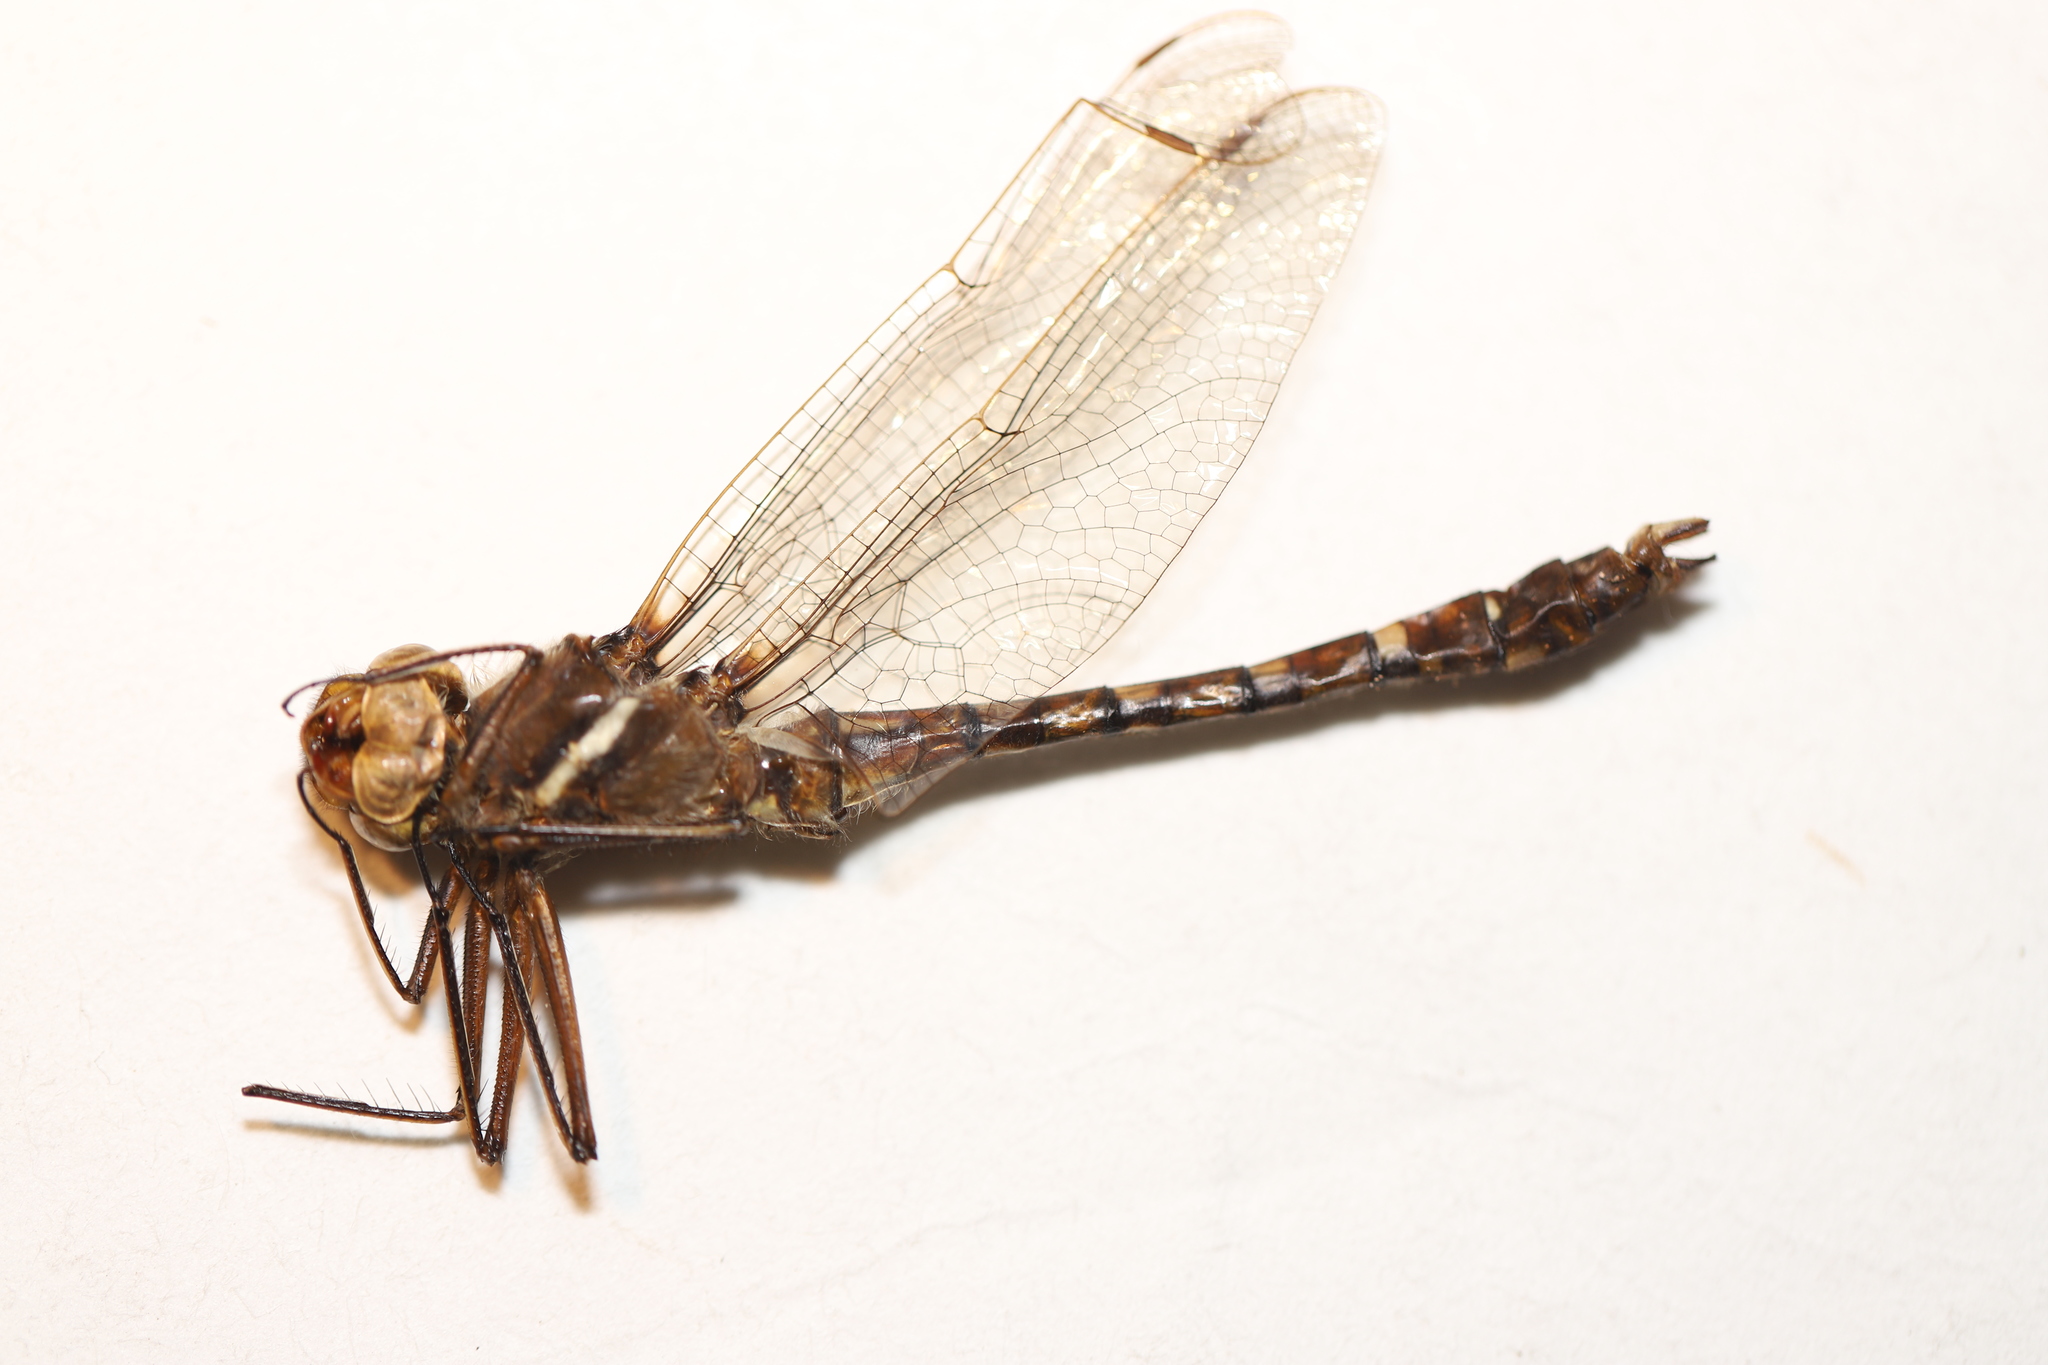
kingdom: Animalia
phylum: Arthropoda
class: Insecta
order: Odonata
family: Macromiidae
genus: Didymops
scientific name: Didymops transversa
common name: Stream cruiser
